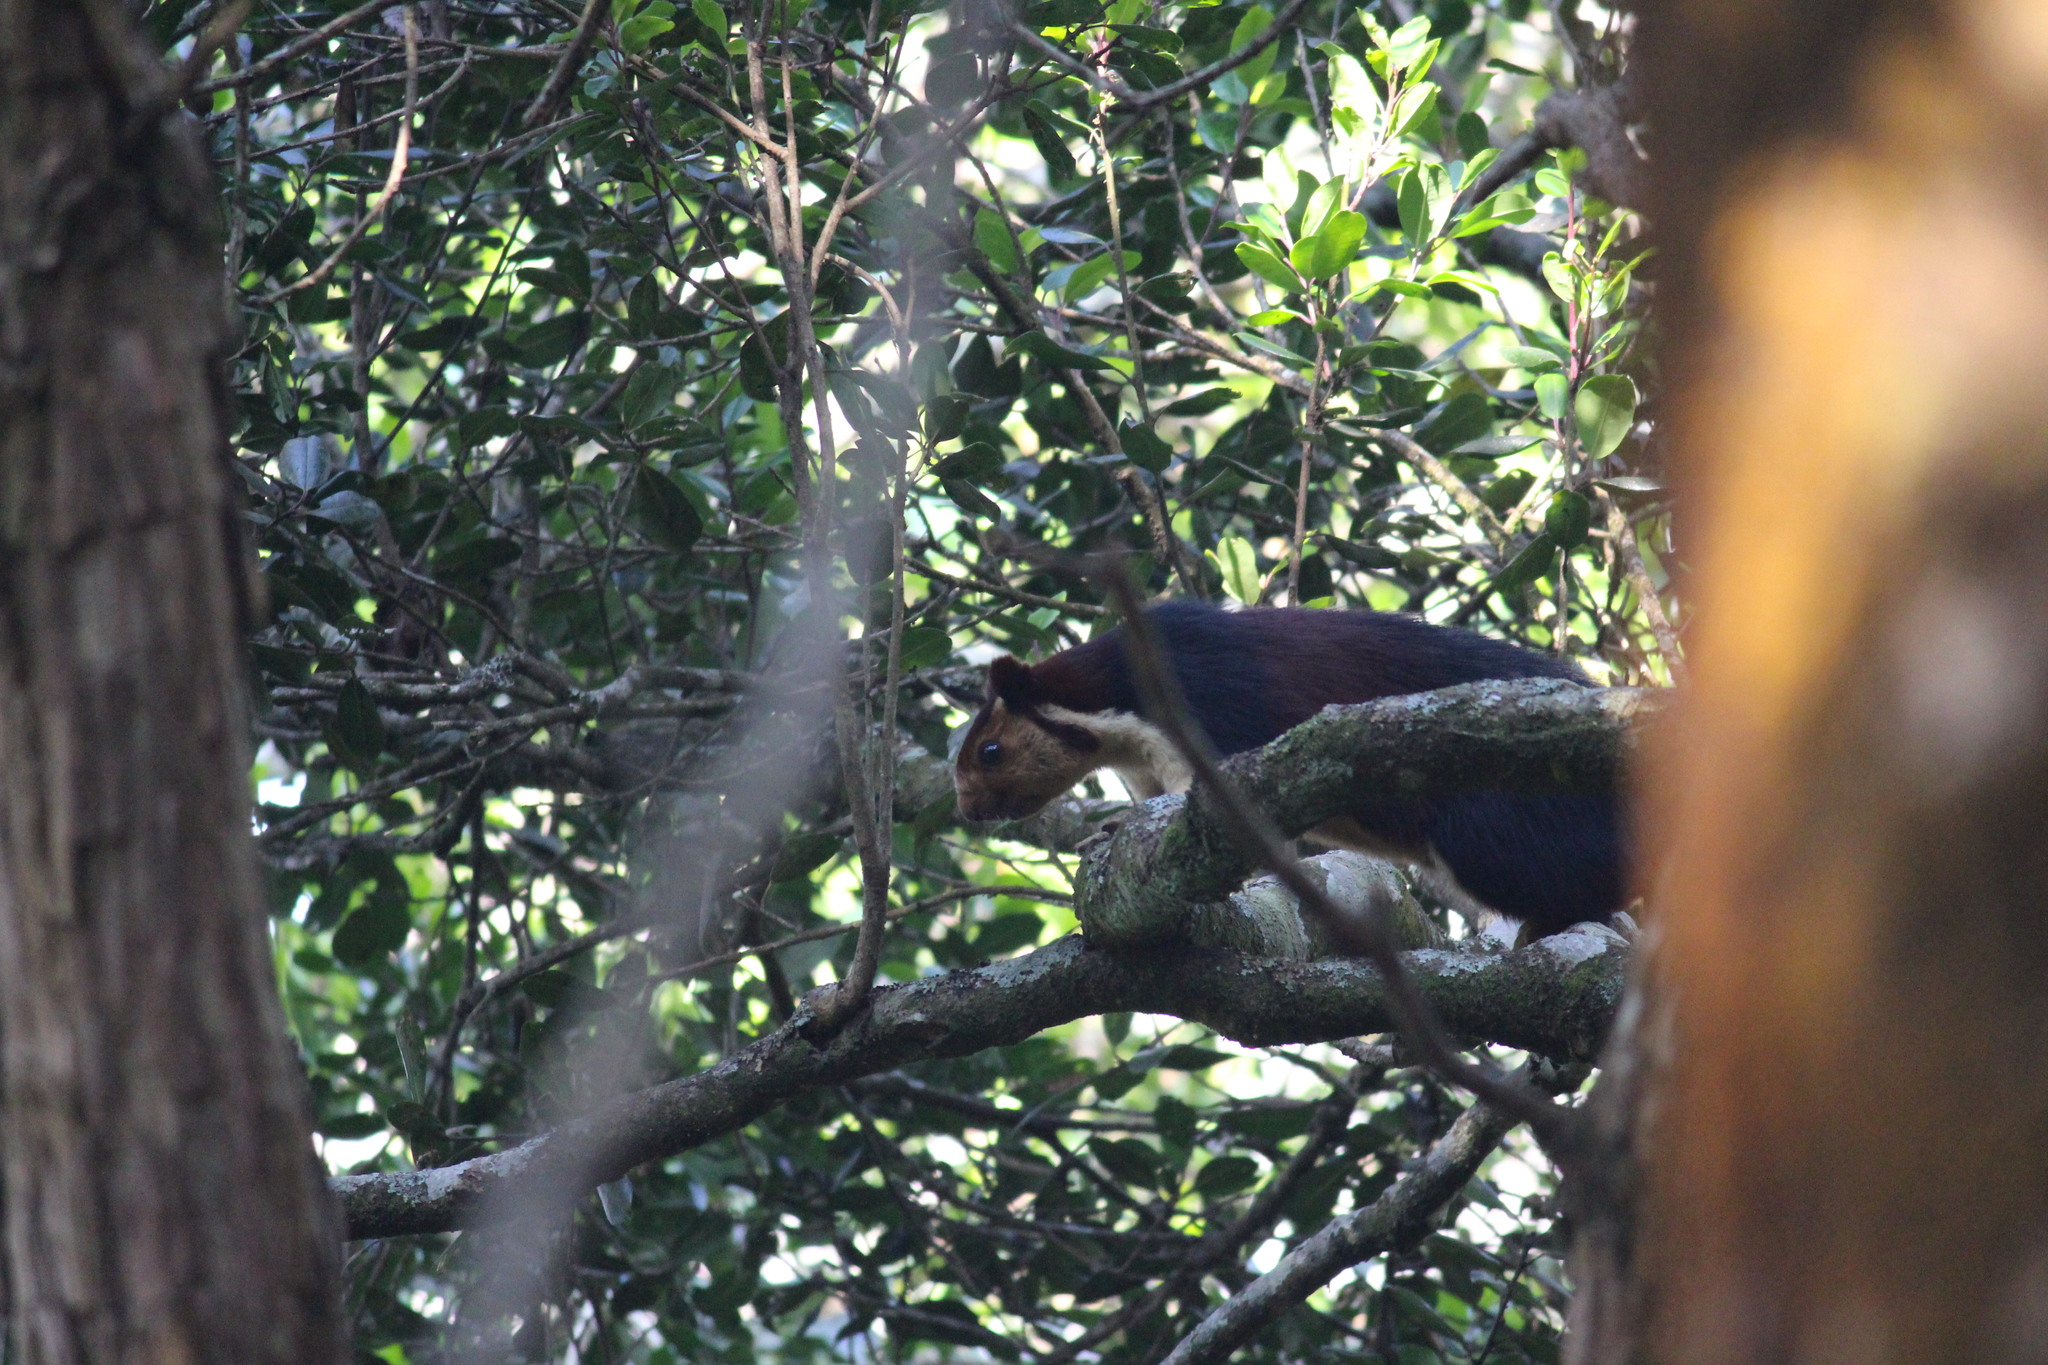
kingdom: Animalia
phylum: Chordata
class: Mammalia
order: Rodentia
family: Sciuridae
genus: Ratufa
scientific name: Ratufa indica
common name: Indian giant squirrel
